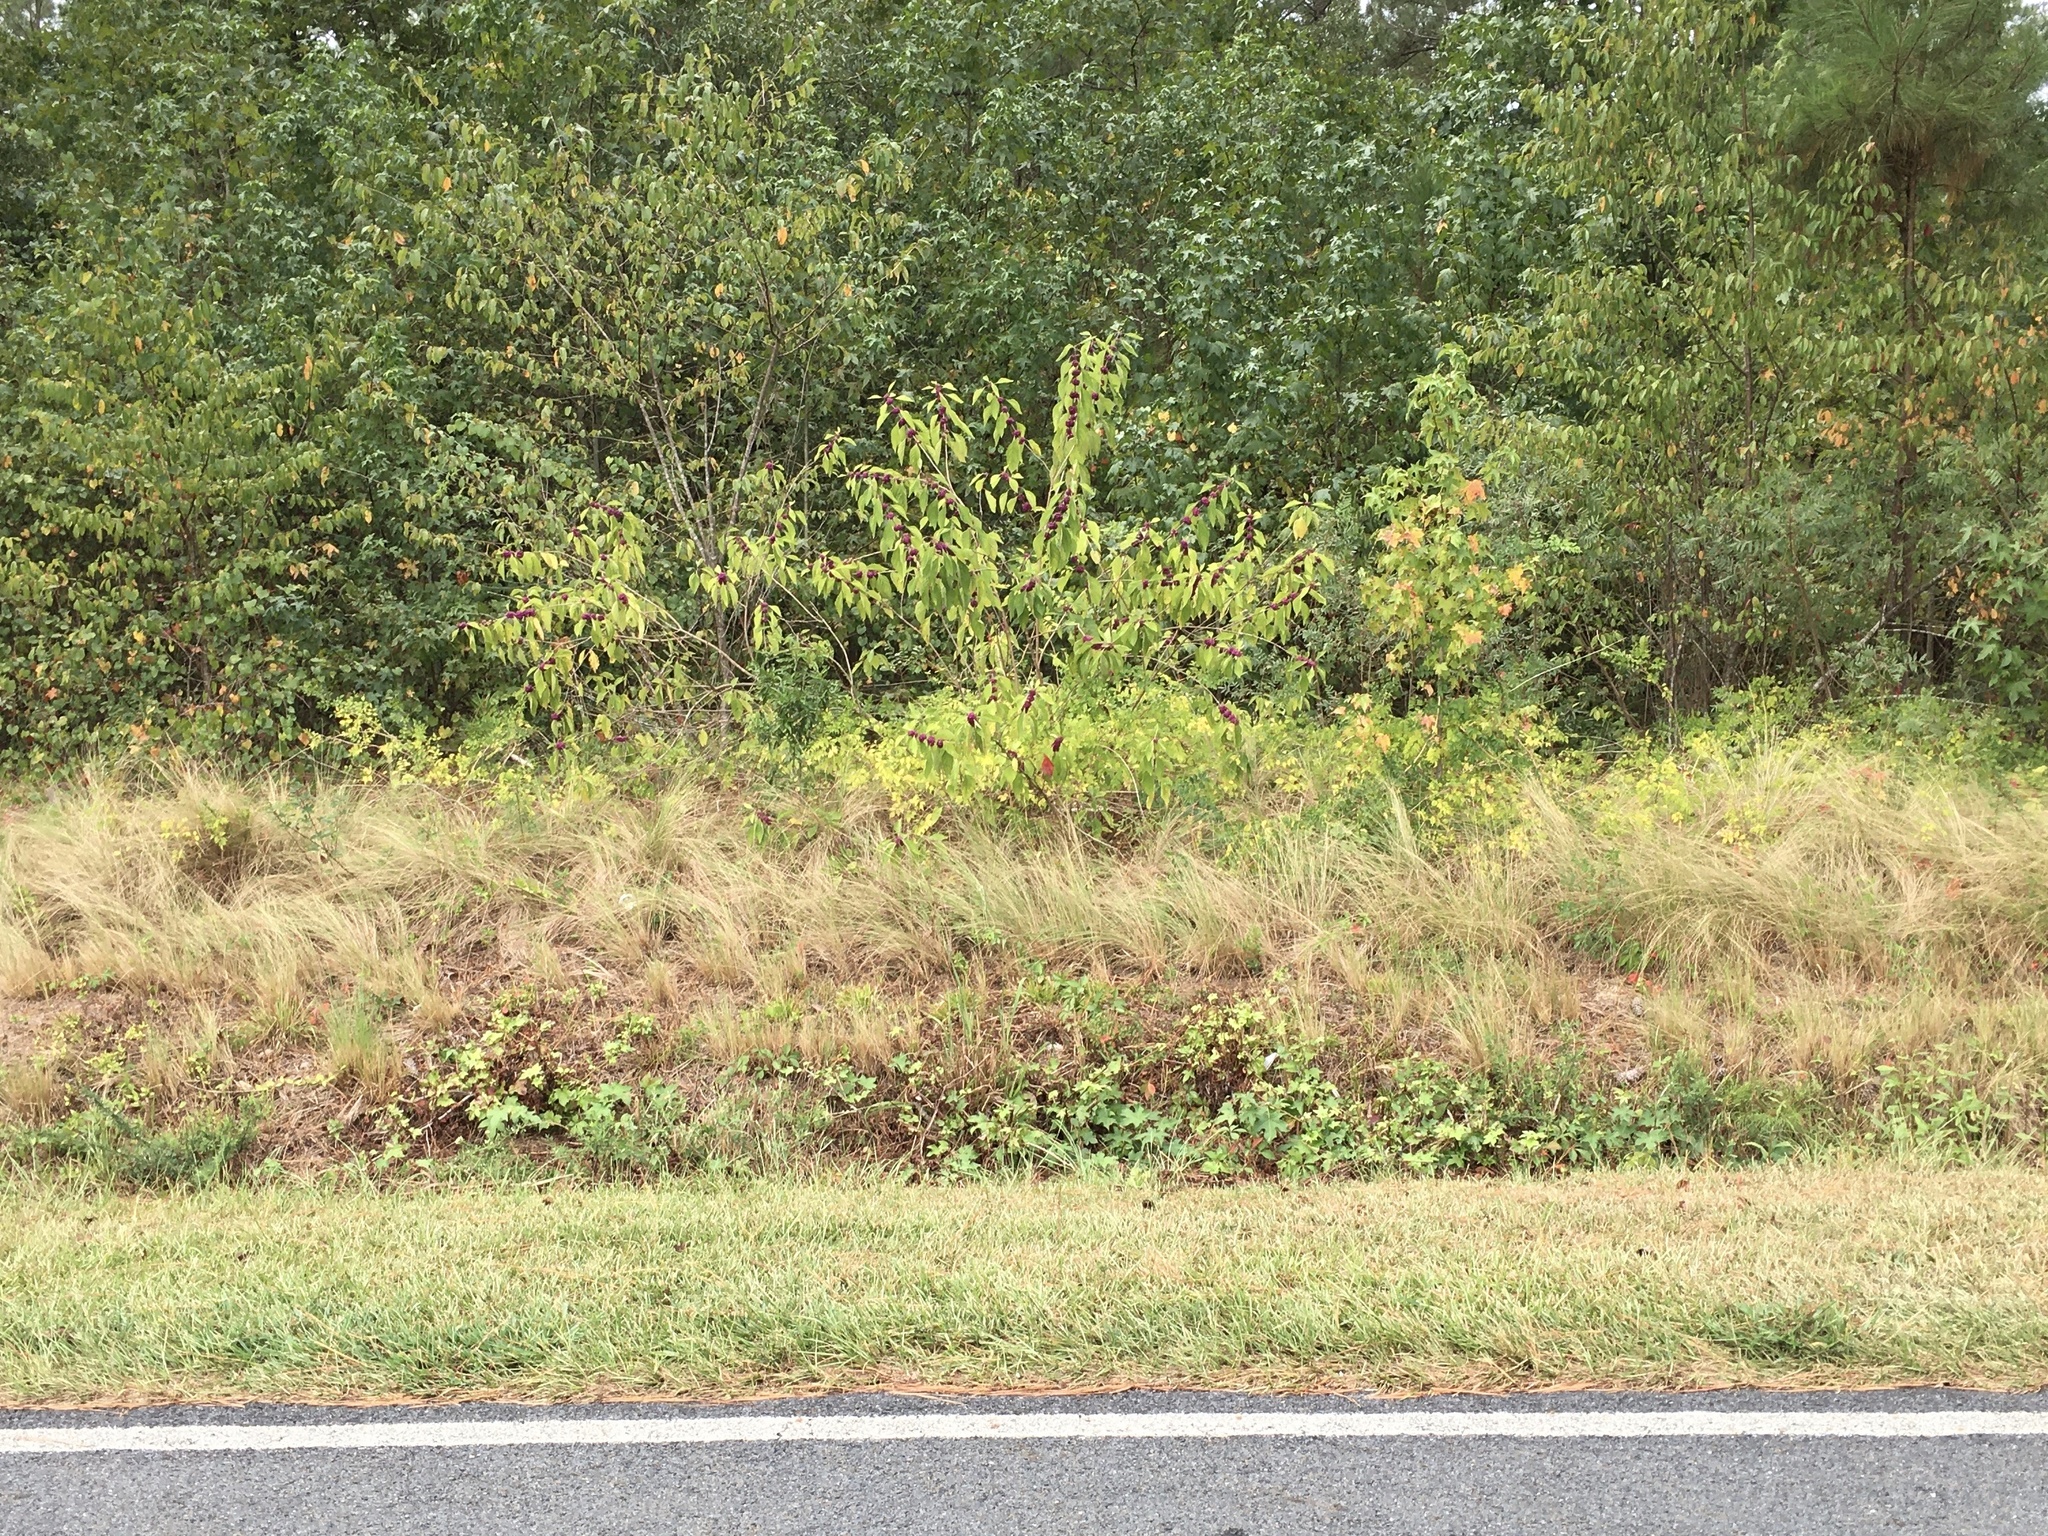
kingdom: Plantae
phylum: Tracheophyta
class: Magnoliopsida
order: Lamiales
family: Lamiaceae
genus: Callicarpa
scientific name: Callicarpa americana
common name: American beautyberry
